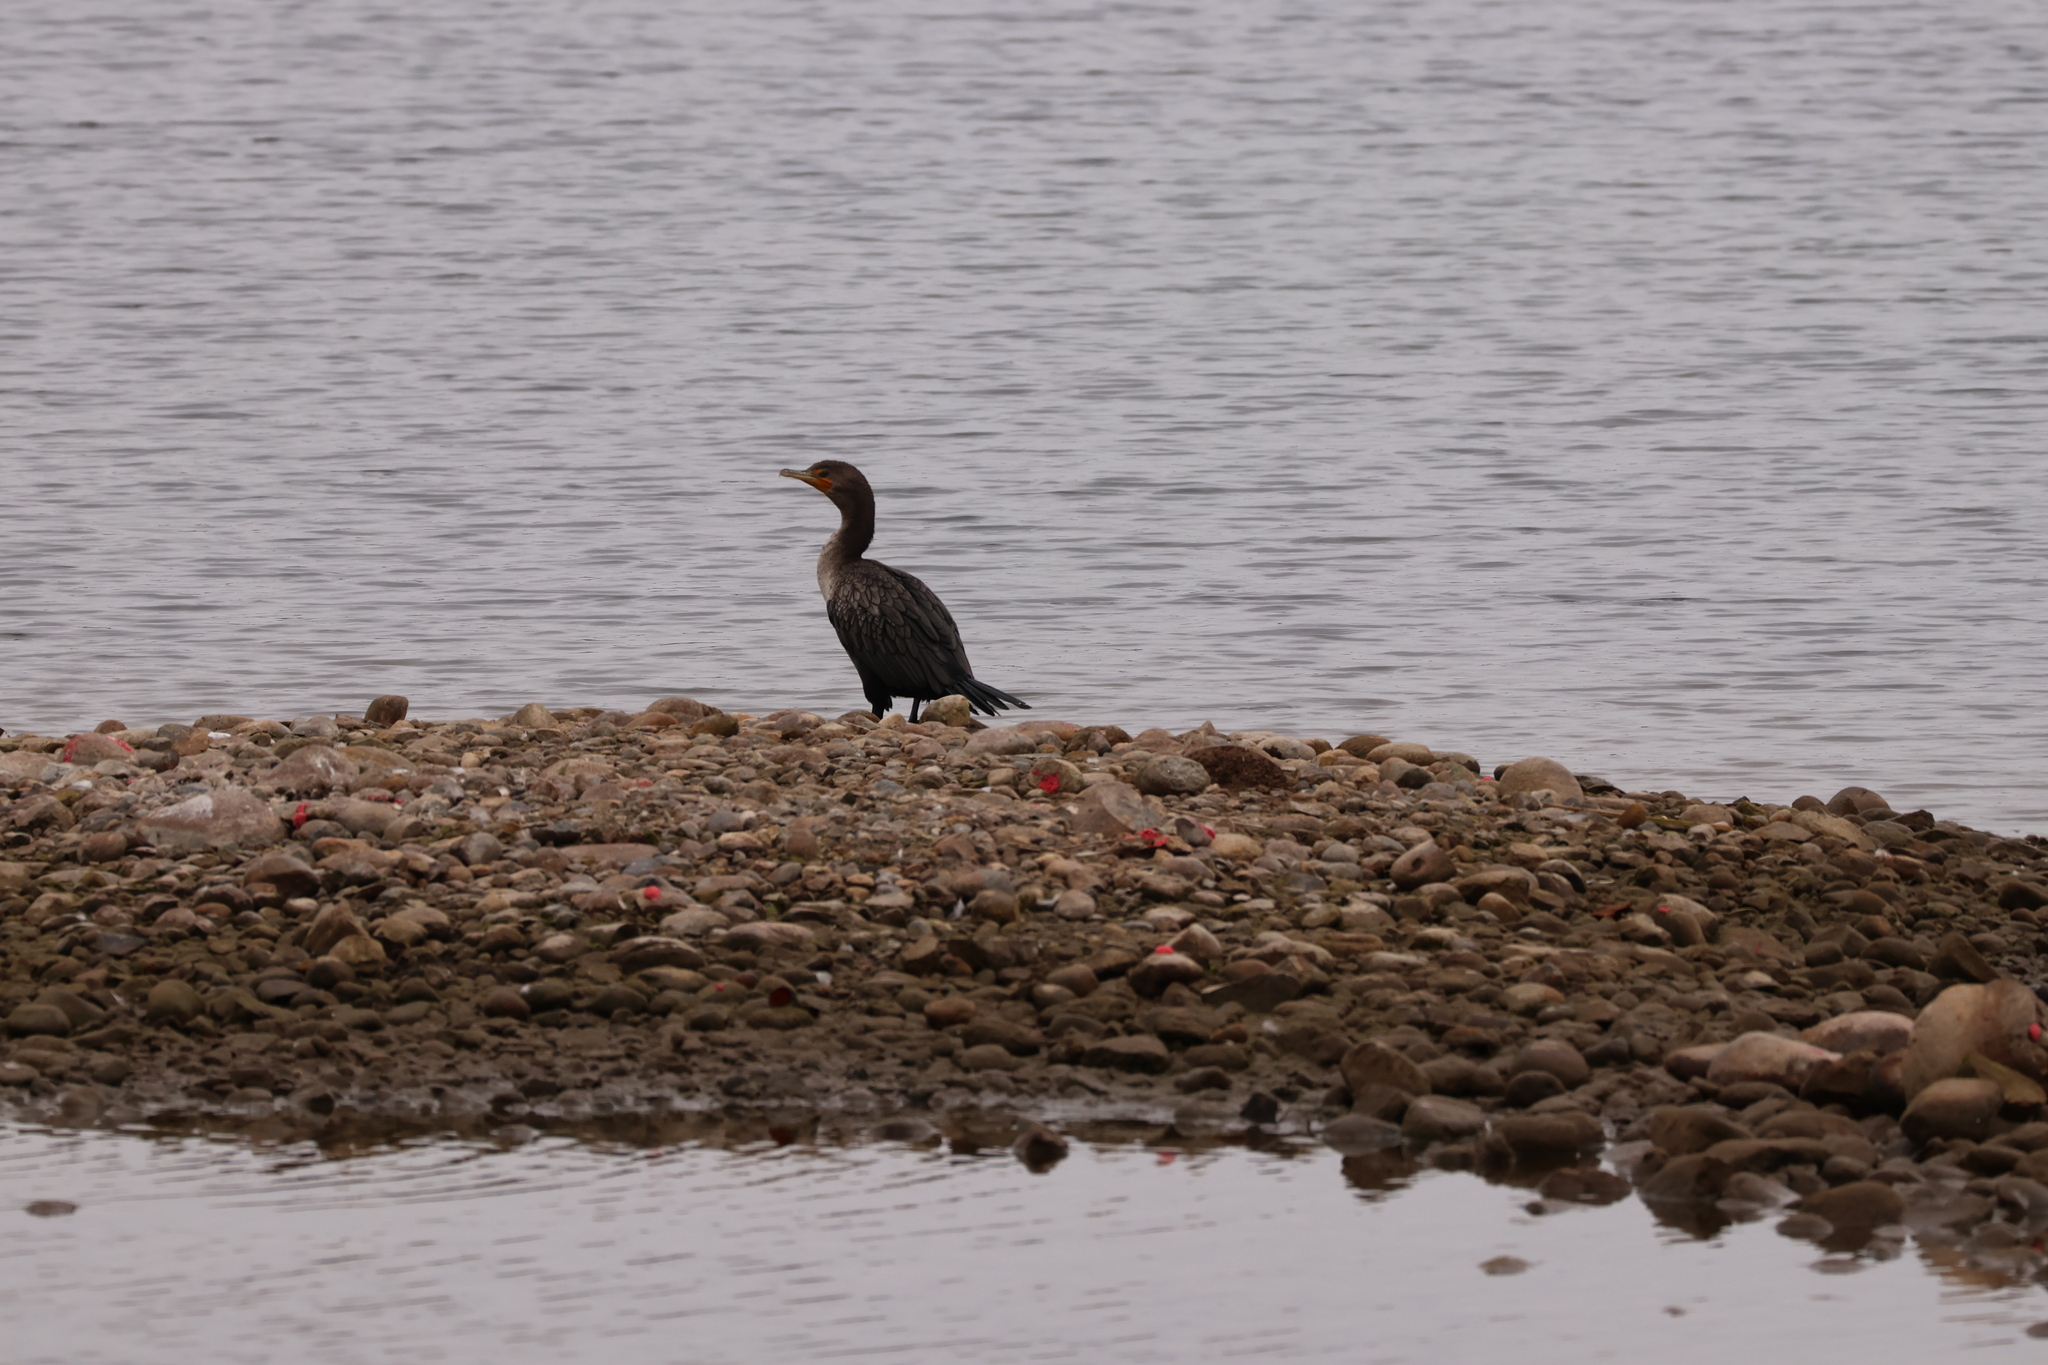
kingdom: Animalia
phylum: Chordata
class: Aves
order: Suliformes
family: Phalacrocoracidae
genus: Phalacrocorax
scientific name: Phalacrocorax auritus
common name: Double-crested cormorant
